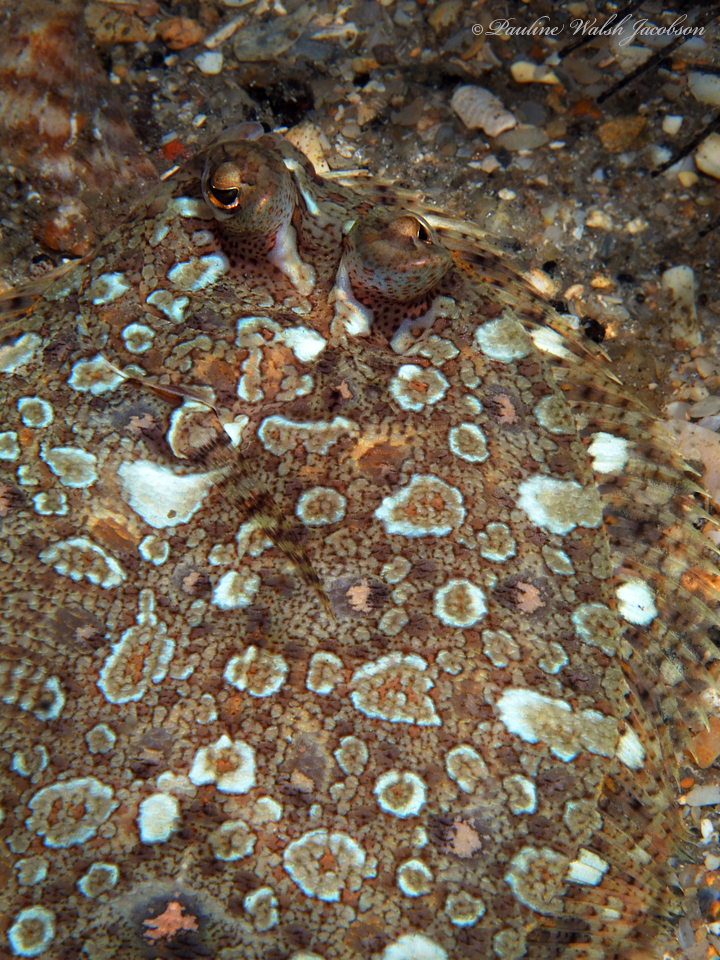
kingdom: Animalia
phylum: Chordata
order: Pleuronectiformes
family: Bothidae
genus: Bothus
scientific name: Bothus ocellatus
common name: Eyed flounder
